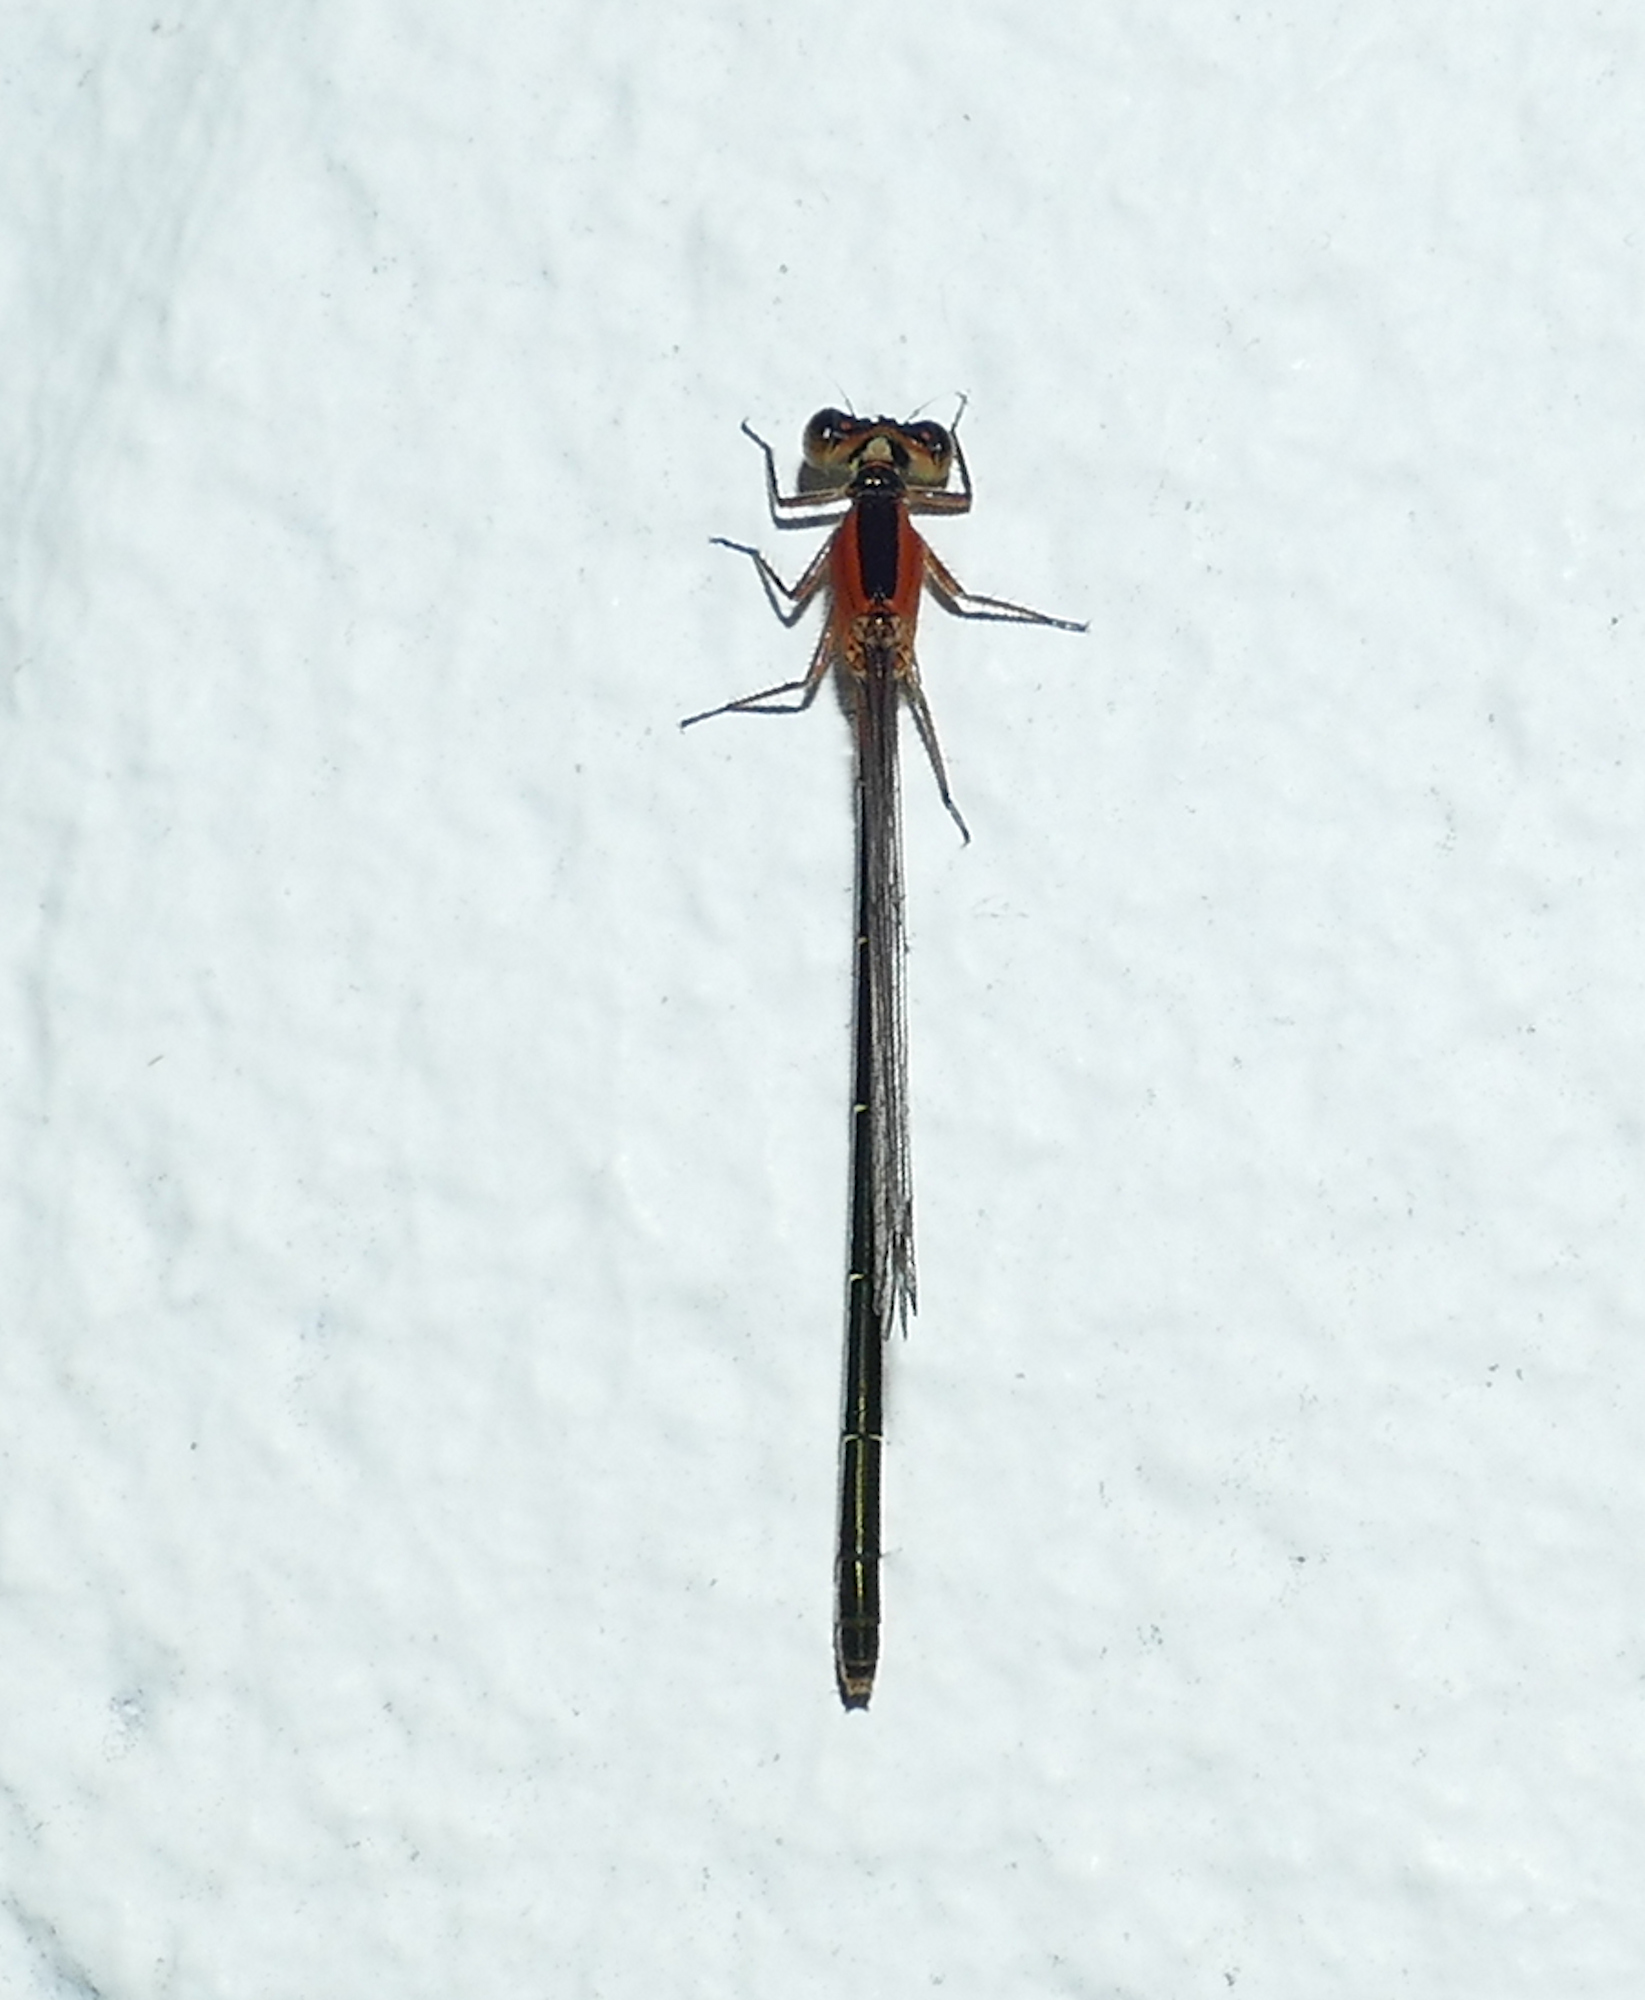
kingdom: Animalia
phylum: Arthropoda
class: Insecta
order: Odonata
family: Coenagrionidae
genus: Ischnura
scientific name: Ischnura ramburii
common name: Rambur's forktail
